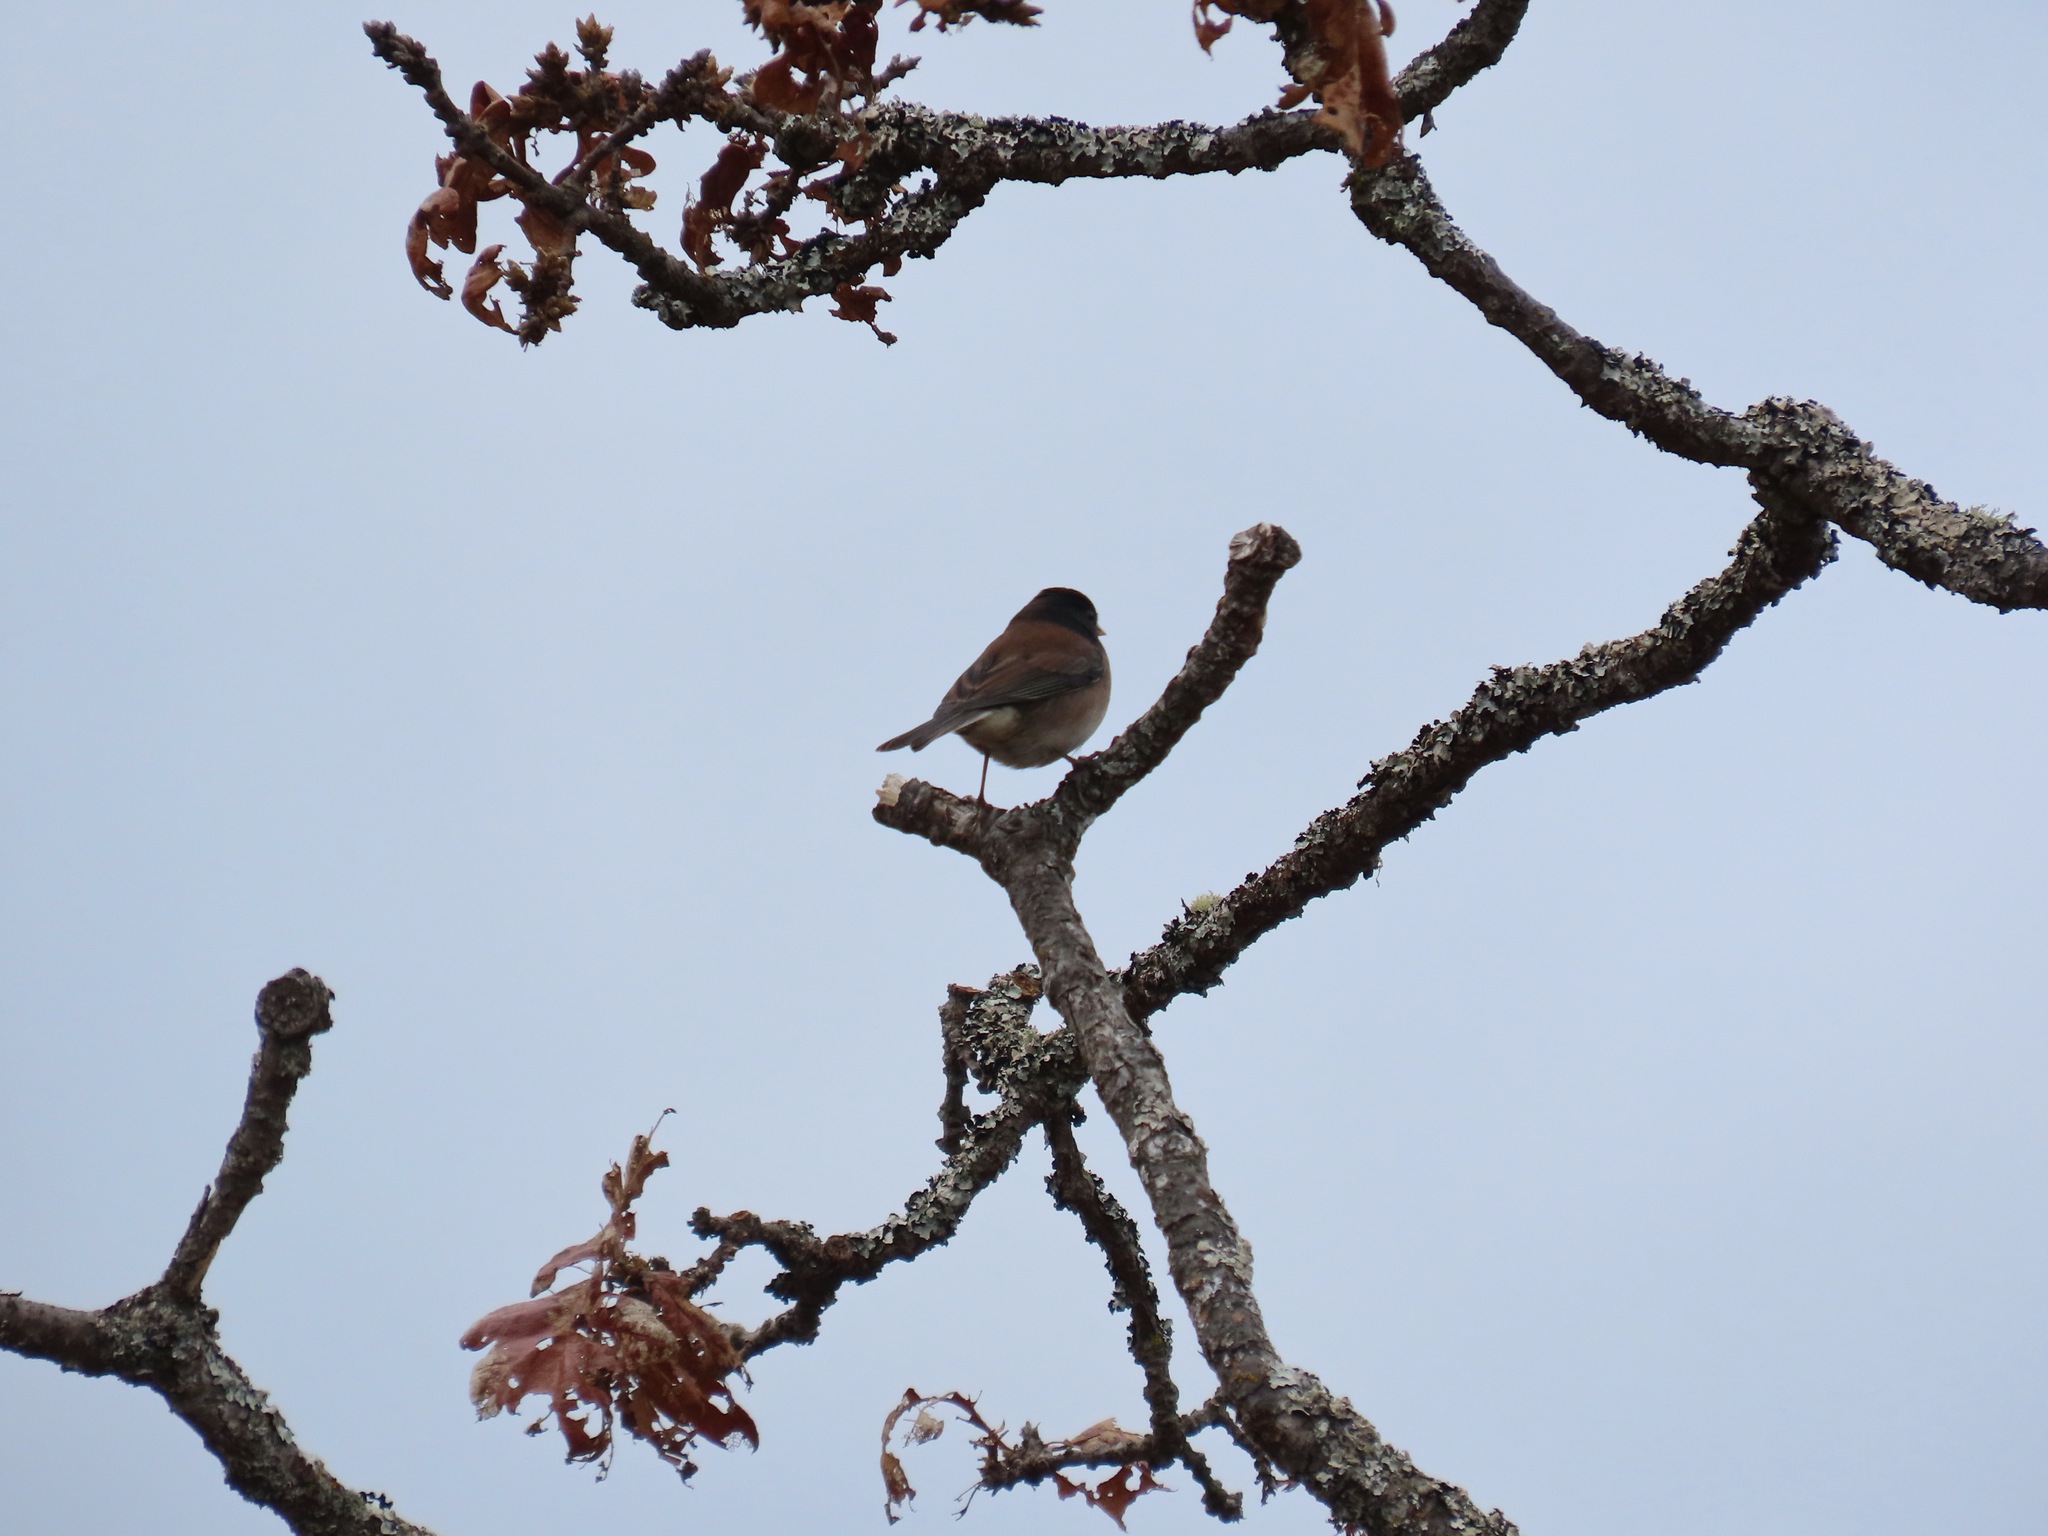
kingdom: Animalia
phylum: Chordata
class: Aves
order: Passeriformes
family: Passerellidae
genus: Junco
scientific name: Junco hyemalis
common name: Dark-eyed junco
